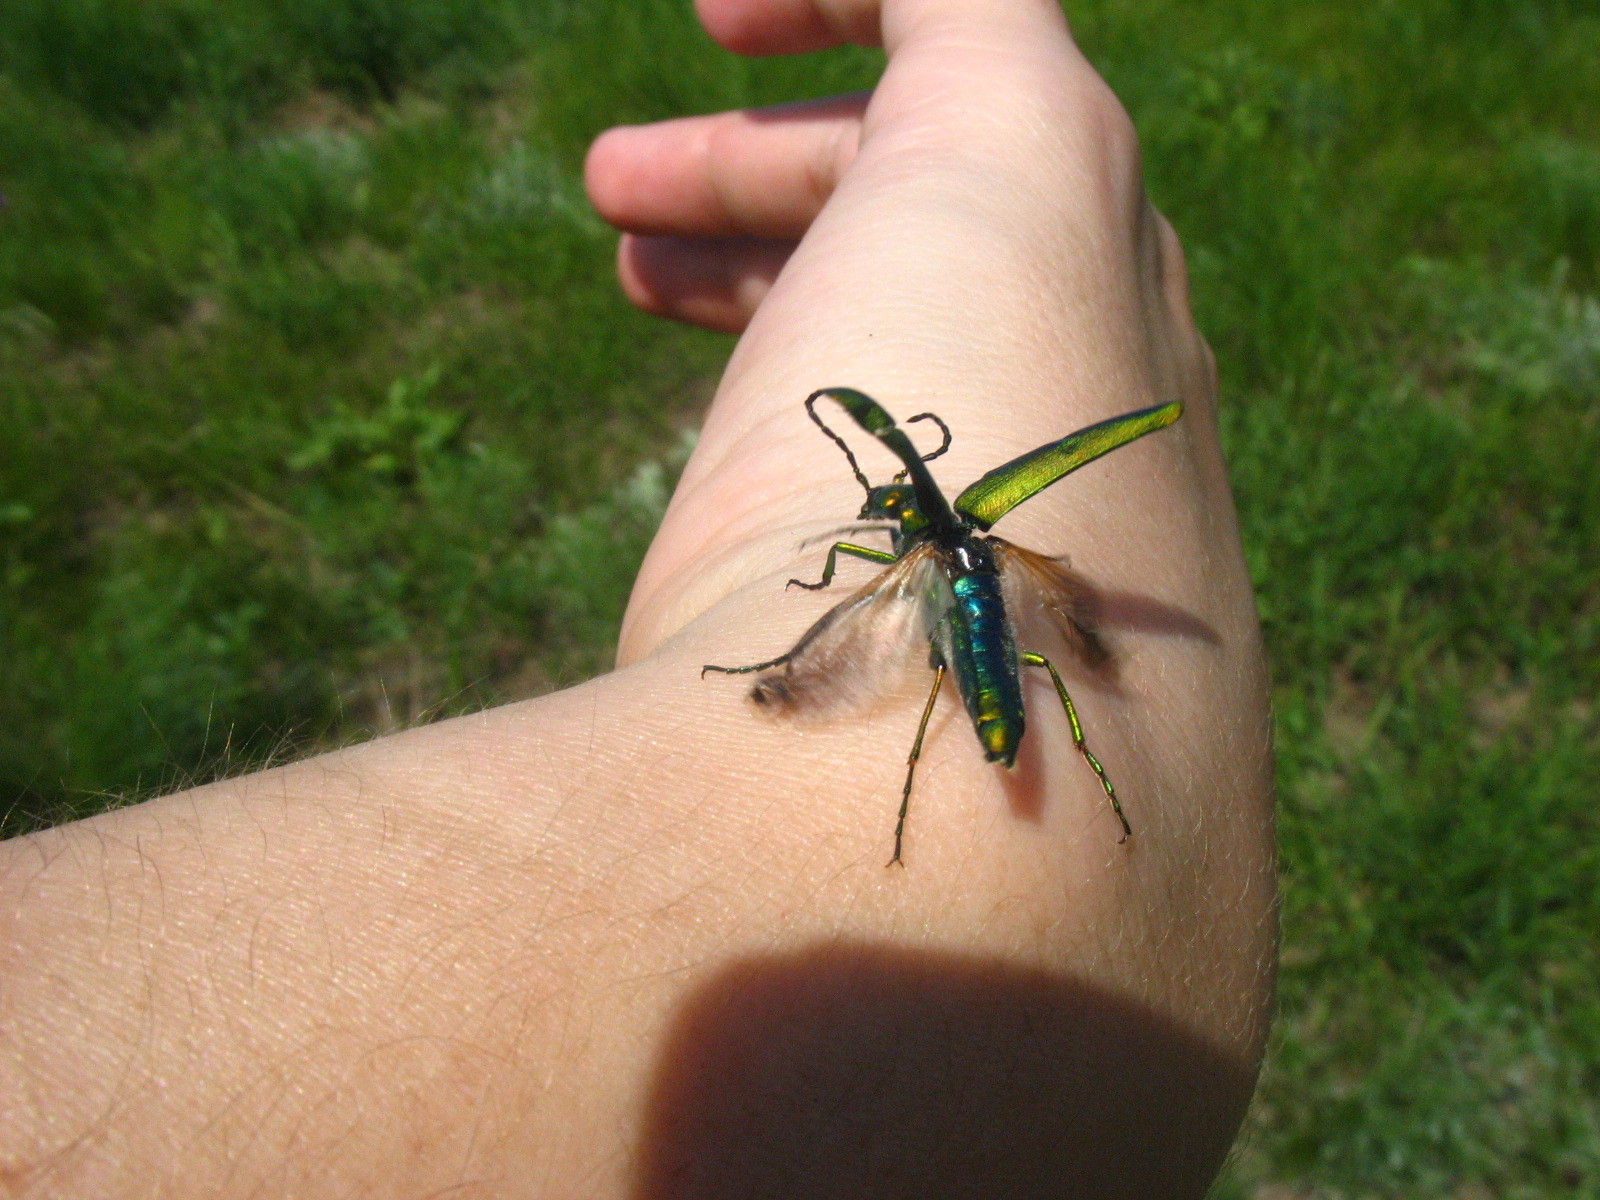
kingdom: Animalia
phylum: Arthropoda
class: Insecta
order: Coleoptera
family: Cerambycidae
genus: Aromia
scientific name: Aromia moschata
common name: Musk beetle
